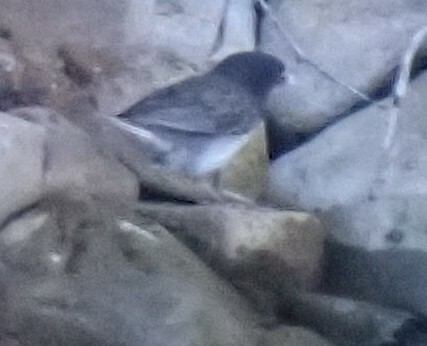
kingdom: Animalia
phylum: Chordata
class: Aves
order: Passeriformes
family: Passerellidae
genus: Junco
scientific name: Junco hyemalis
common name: Dark-eyed junco
